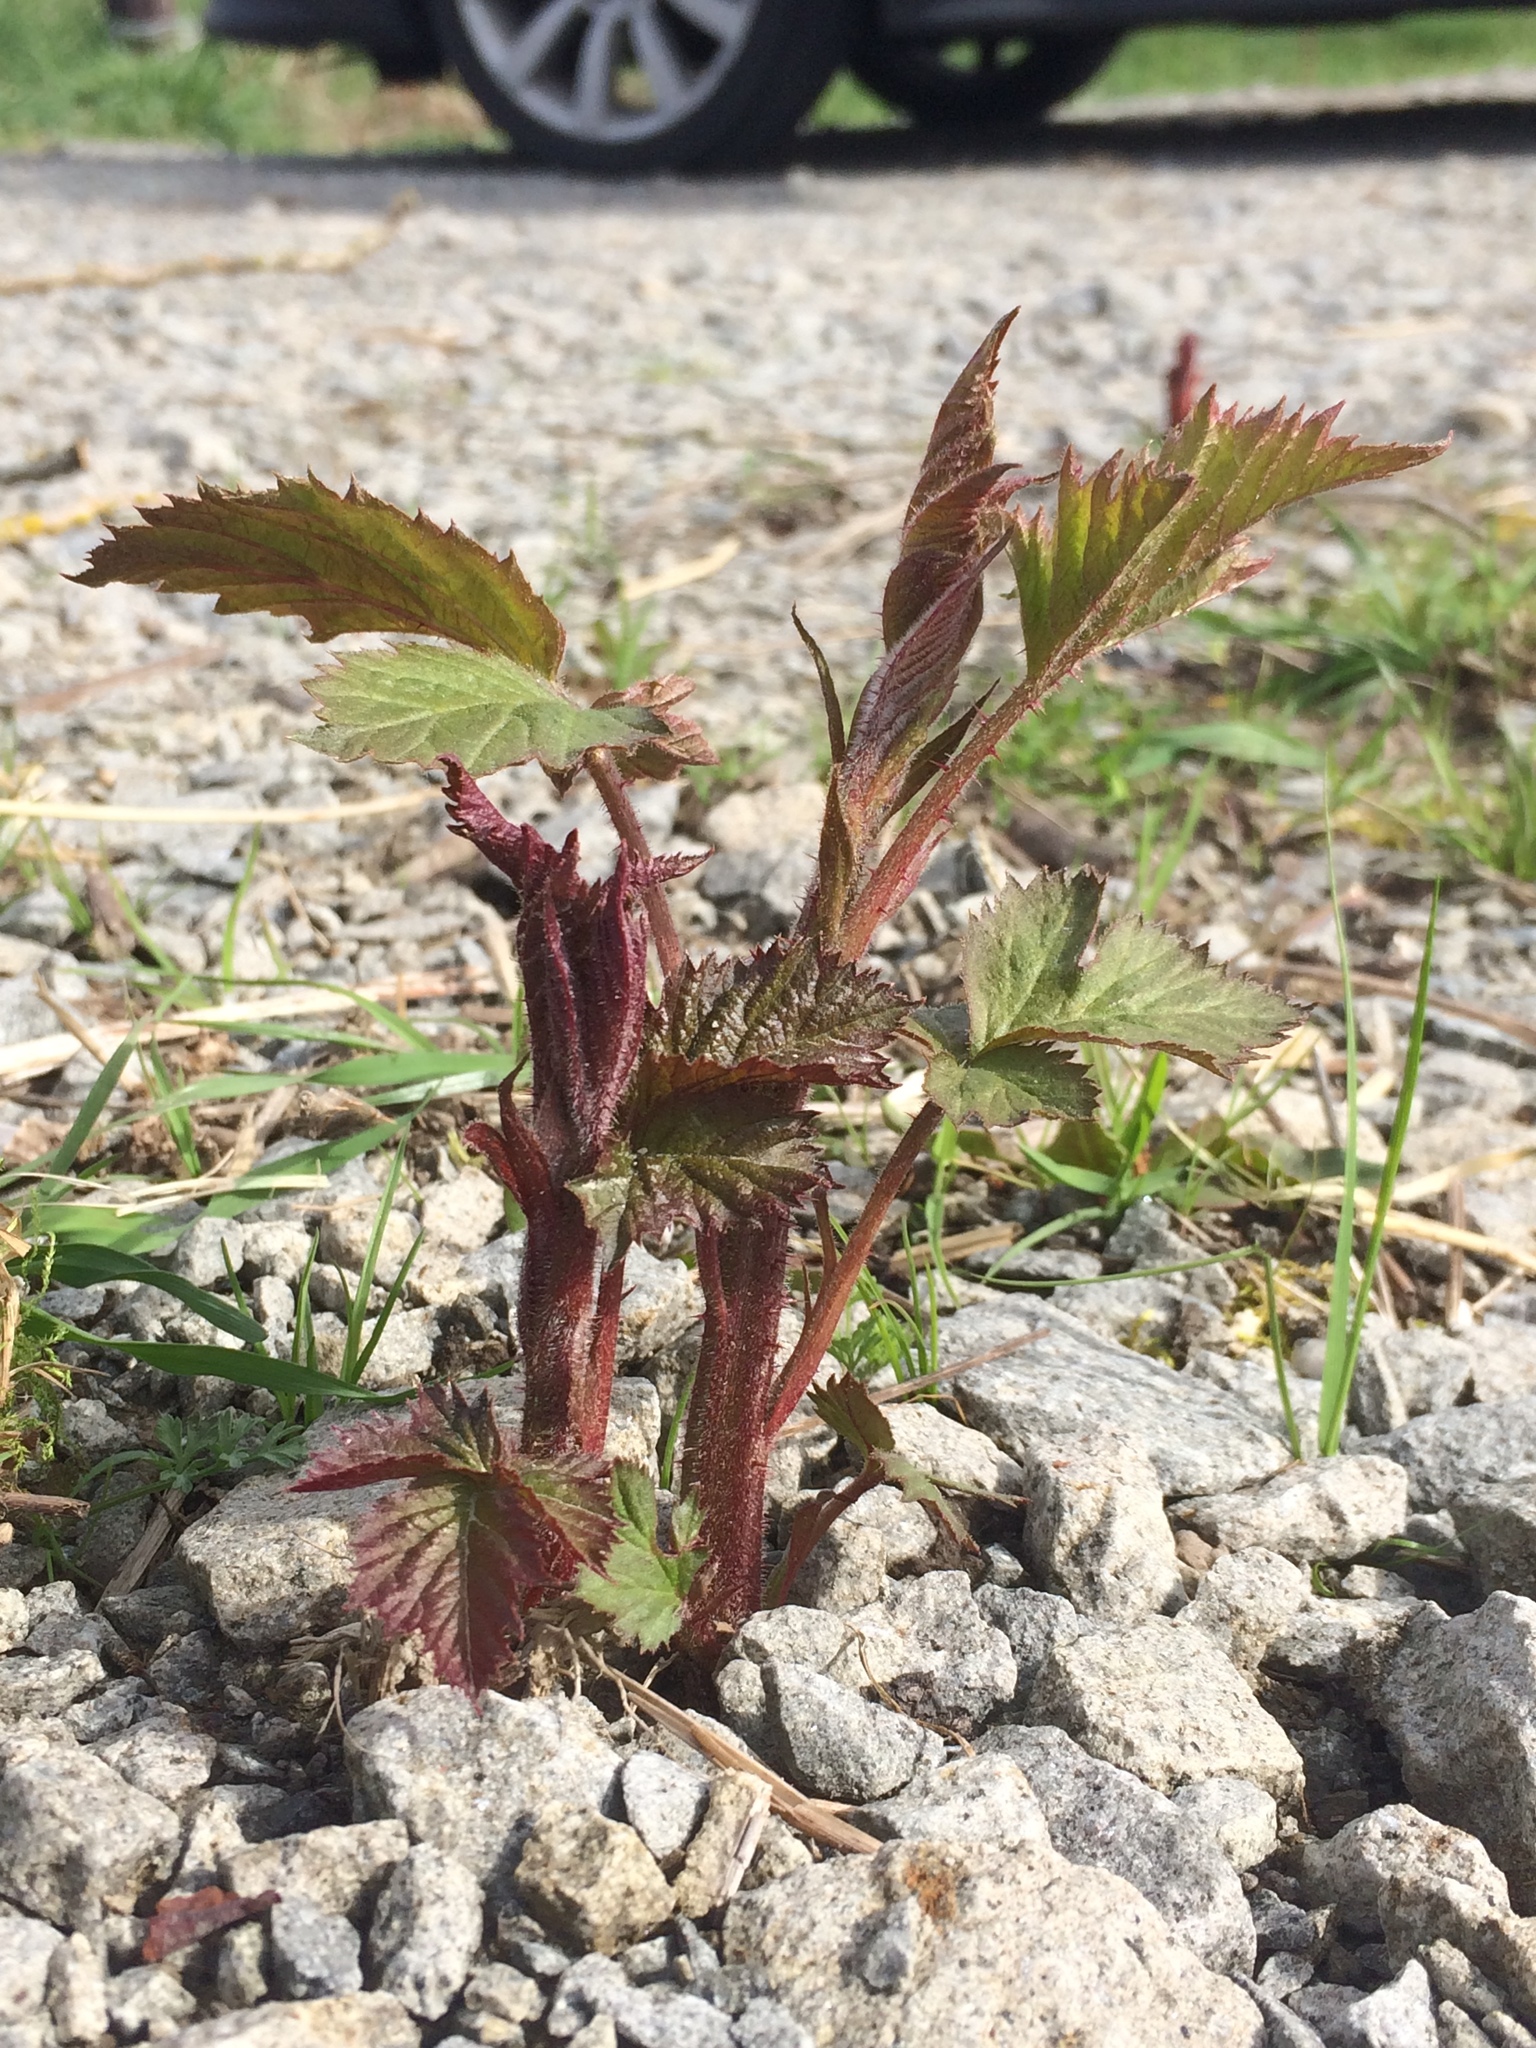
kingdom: Plantae
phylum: Tracheophyta
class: Magnoliopsida
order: Rosales
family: Rosaceae
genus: Rubus
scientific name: Rubus armeniacus
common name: Himalayan blackberry
